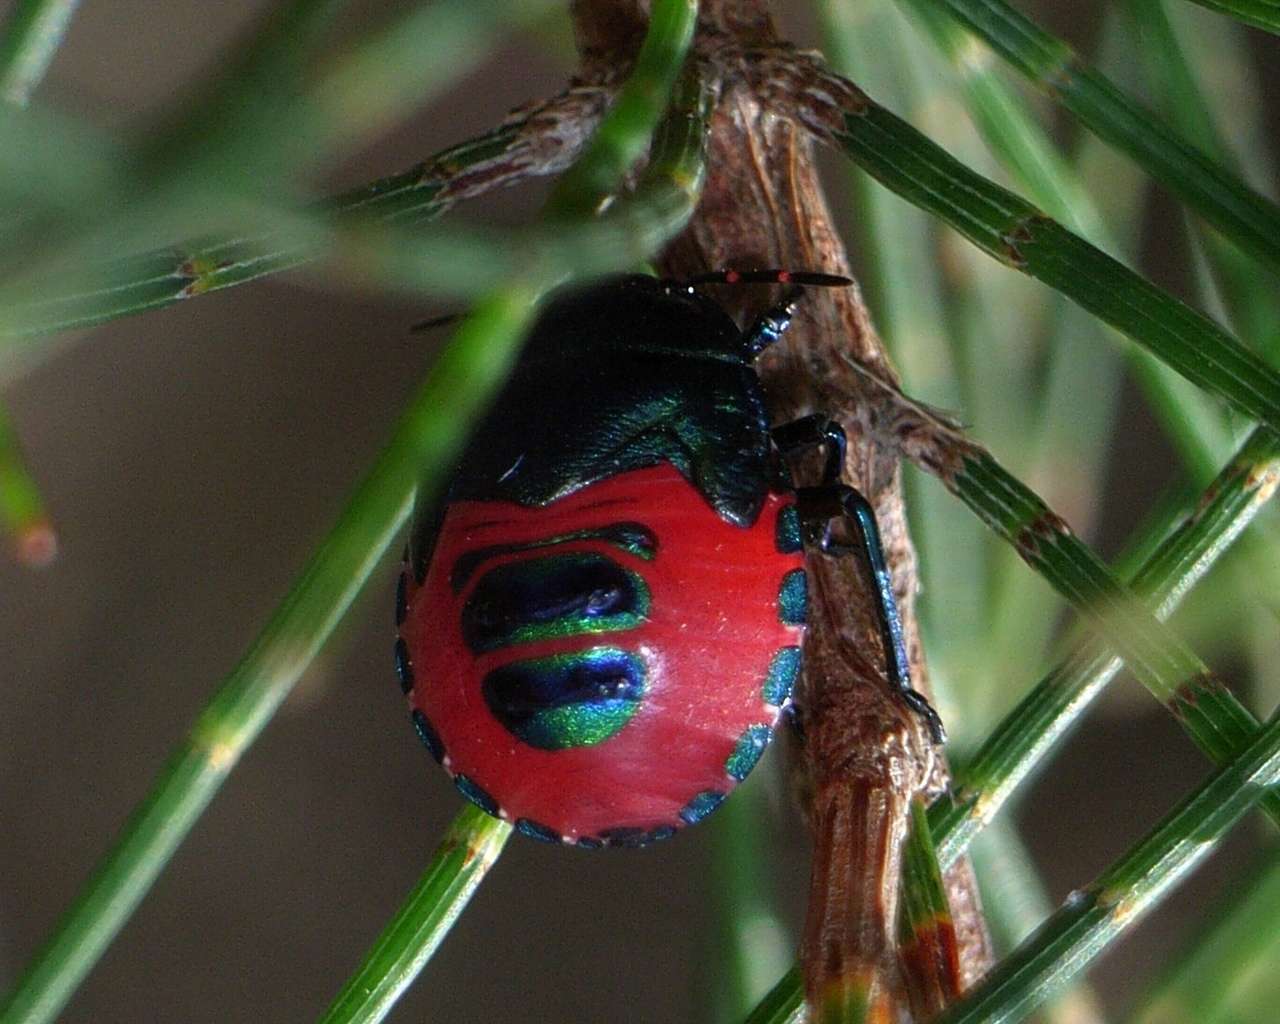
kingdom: Animalia
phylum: Arthropoda
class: Insecta
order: Hemiptera
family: Scutelleridae
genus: Choerocoris
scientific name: Choerocoris paganus
